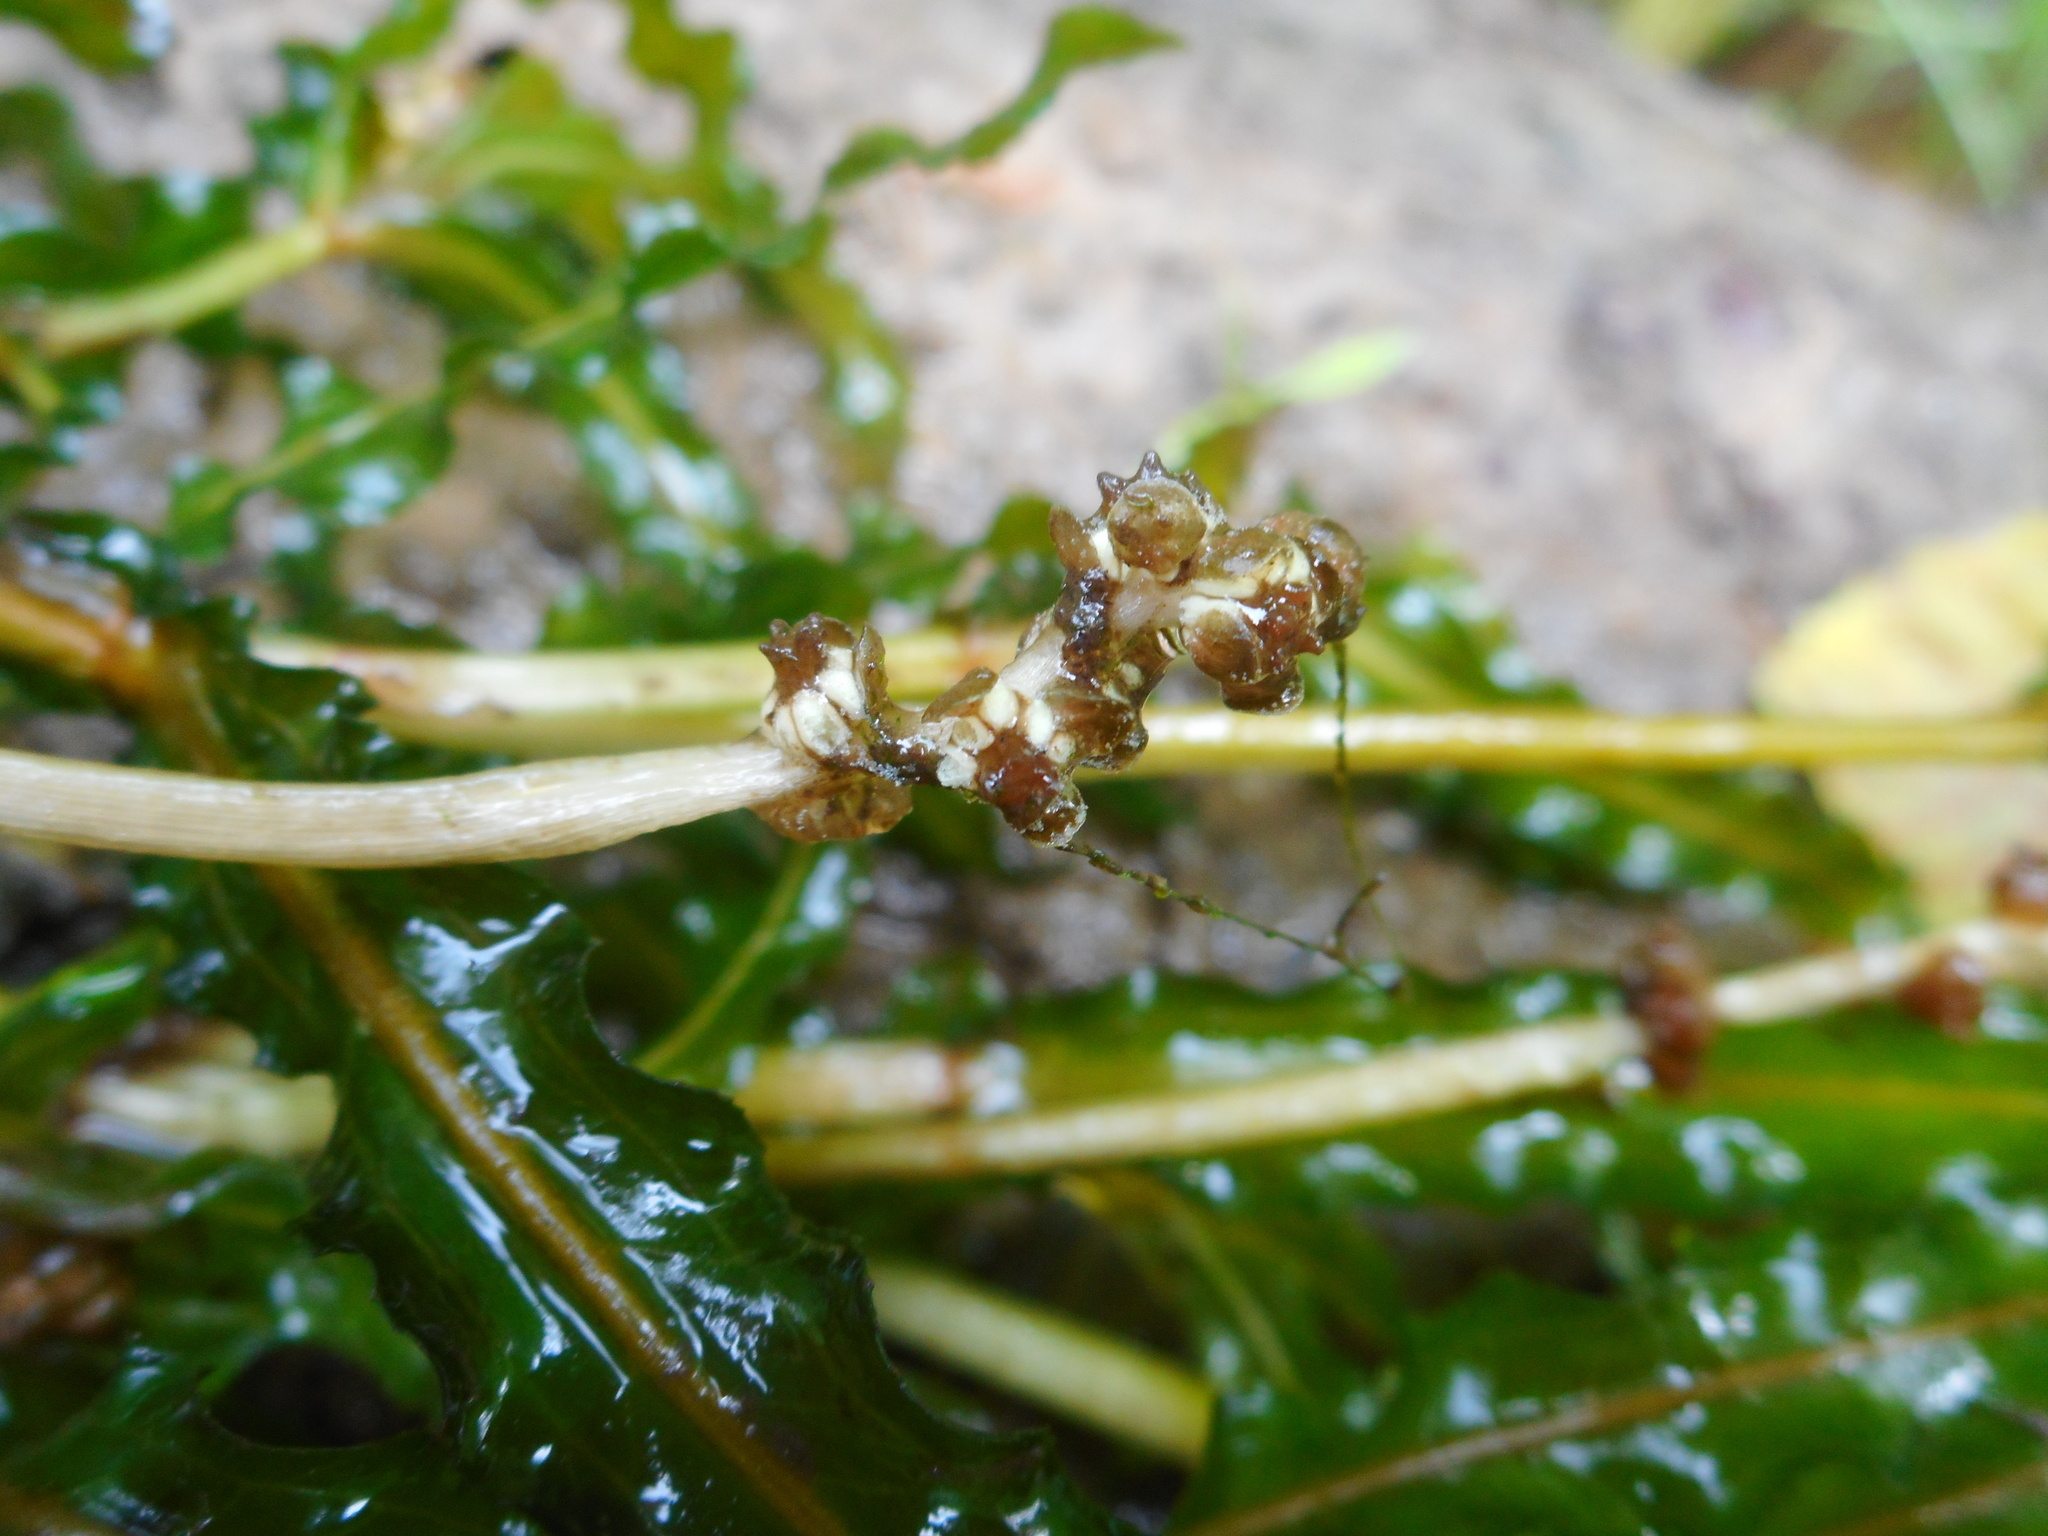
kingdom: Plantae
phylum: Tracheophyta
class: Liliopsida
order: Alismatales
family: Potamogetonaceae
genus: Potamogeton
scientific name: Potamogeton crispus
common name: Curled pondweed
